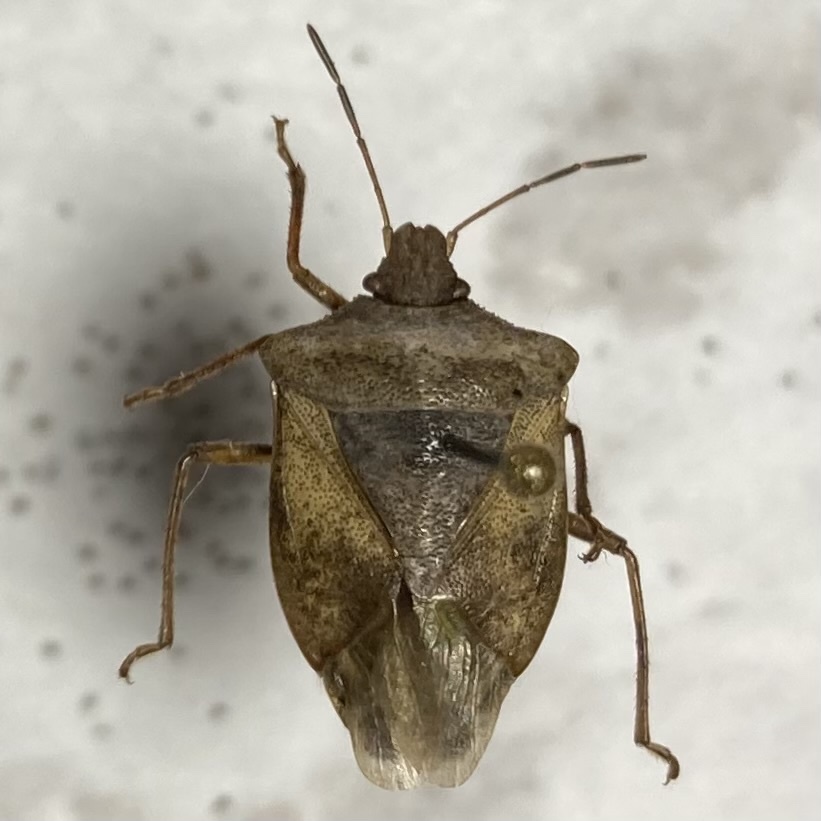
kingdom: Animalia
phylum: Arthropoda
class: Insecta
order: Hemiptera
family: Pentatomidae
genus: Euschistus
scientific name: Euschistus servus
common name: Brown stink bug
